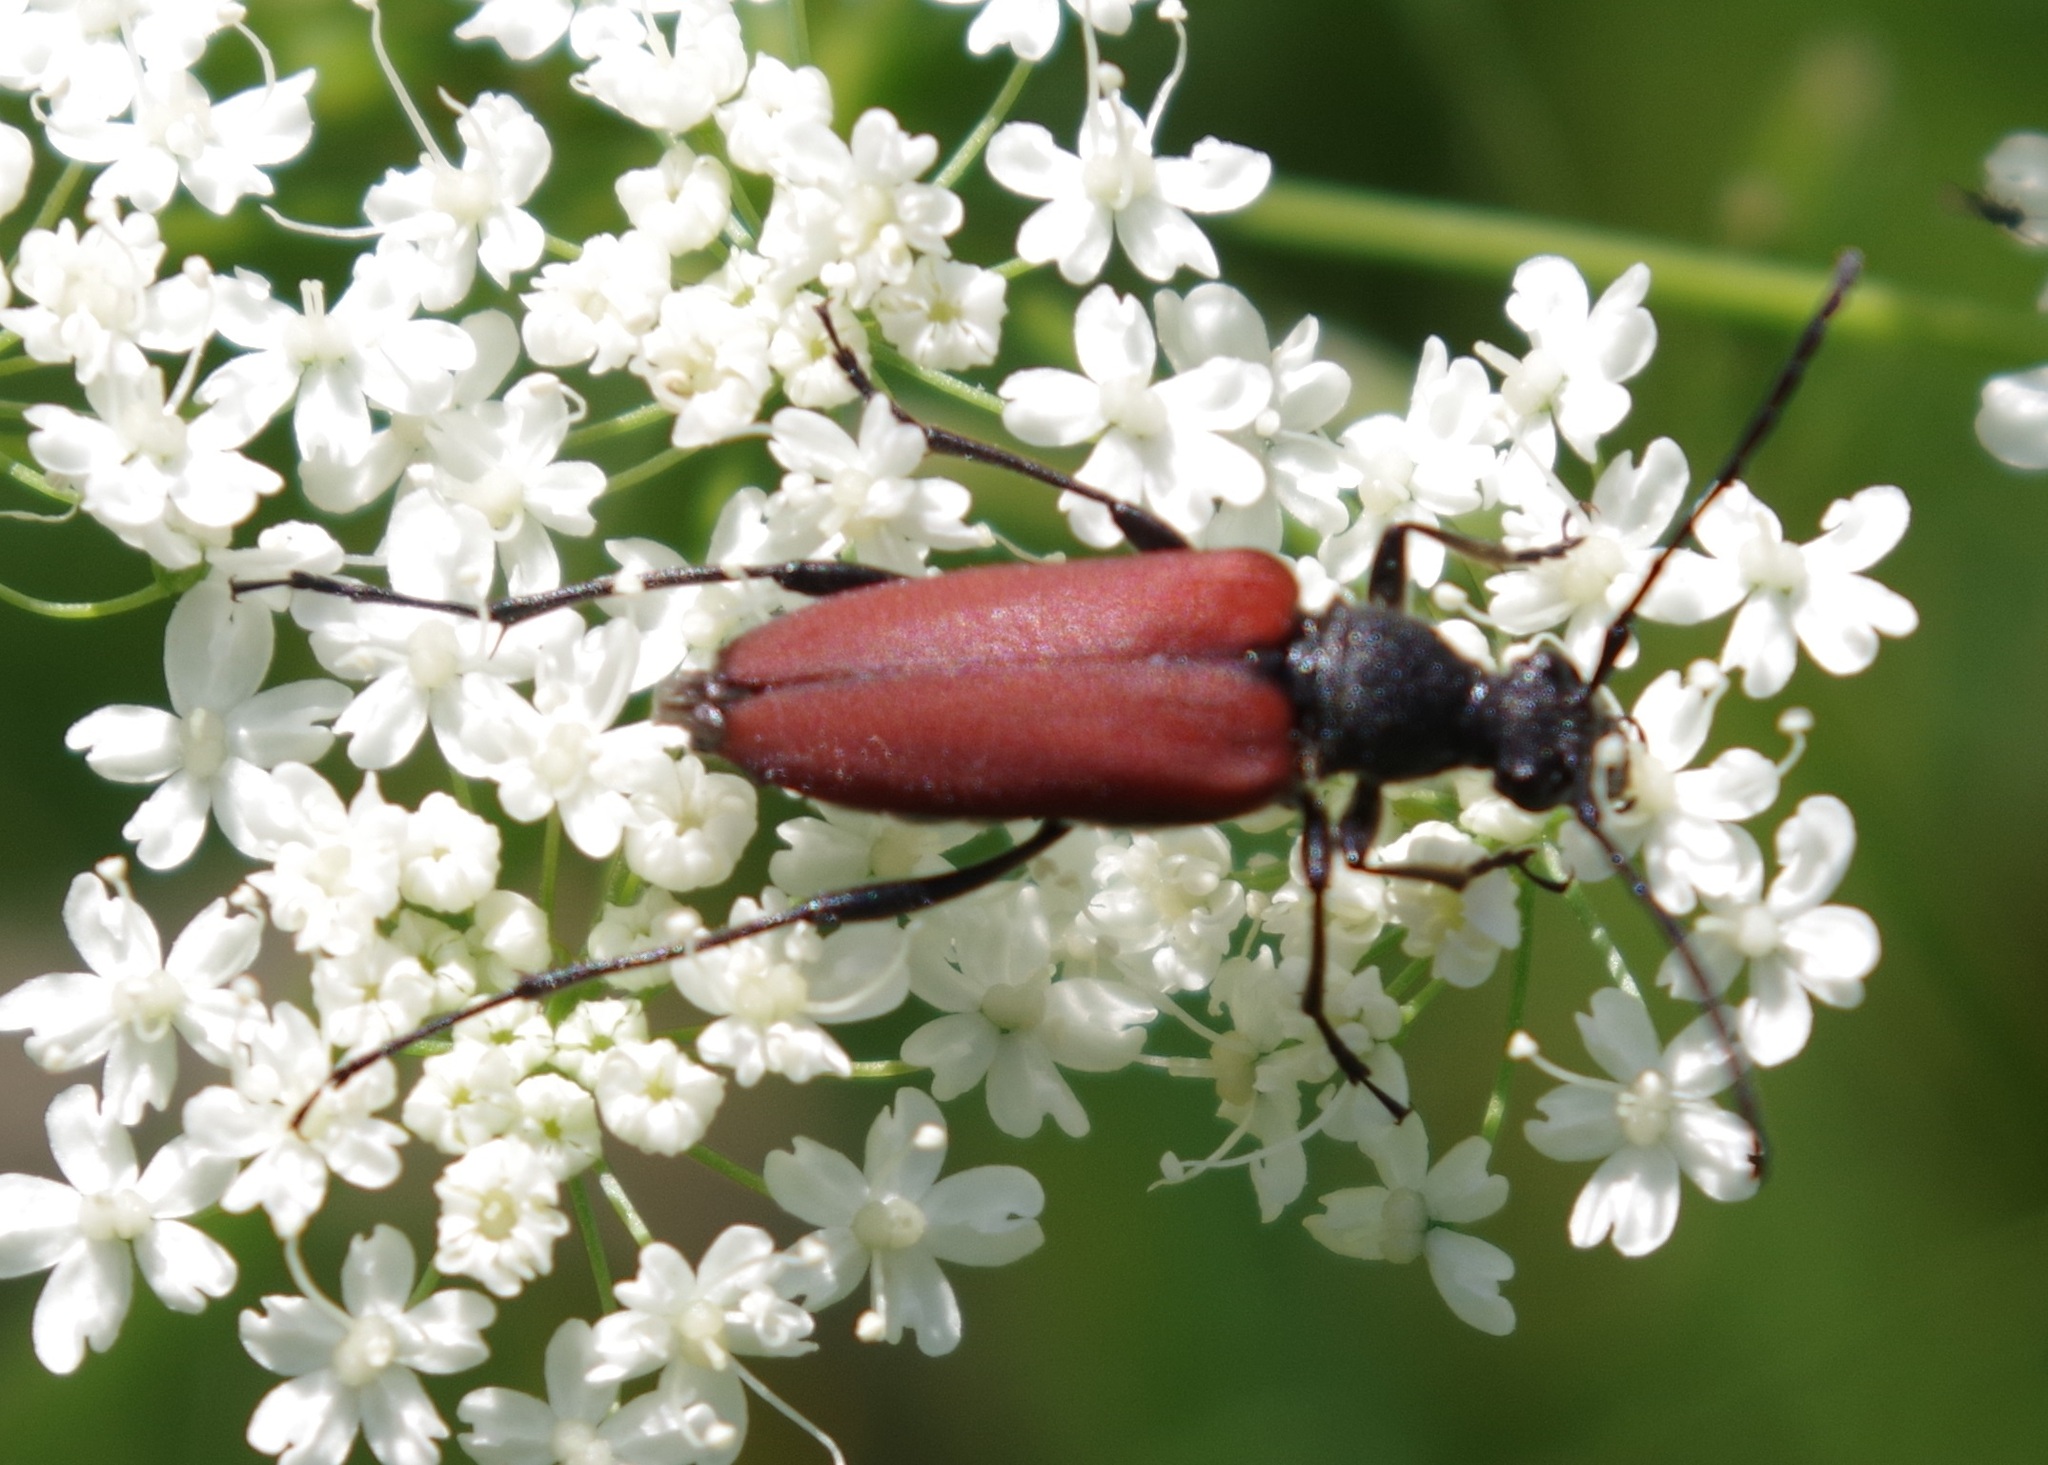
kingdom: Animalia
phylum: Arthropoda
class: Insecta
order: Coleoptera
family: Cerambycidae
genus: Anastrangalia
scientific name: Anastrangalia sanguinolenta
